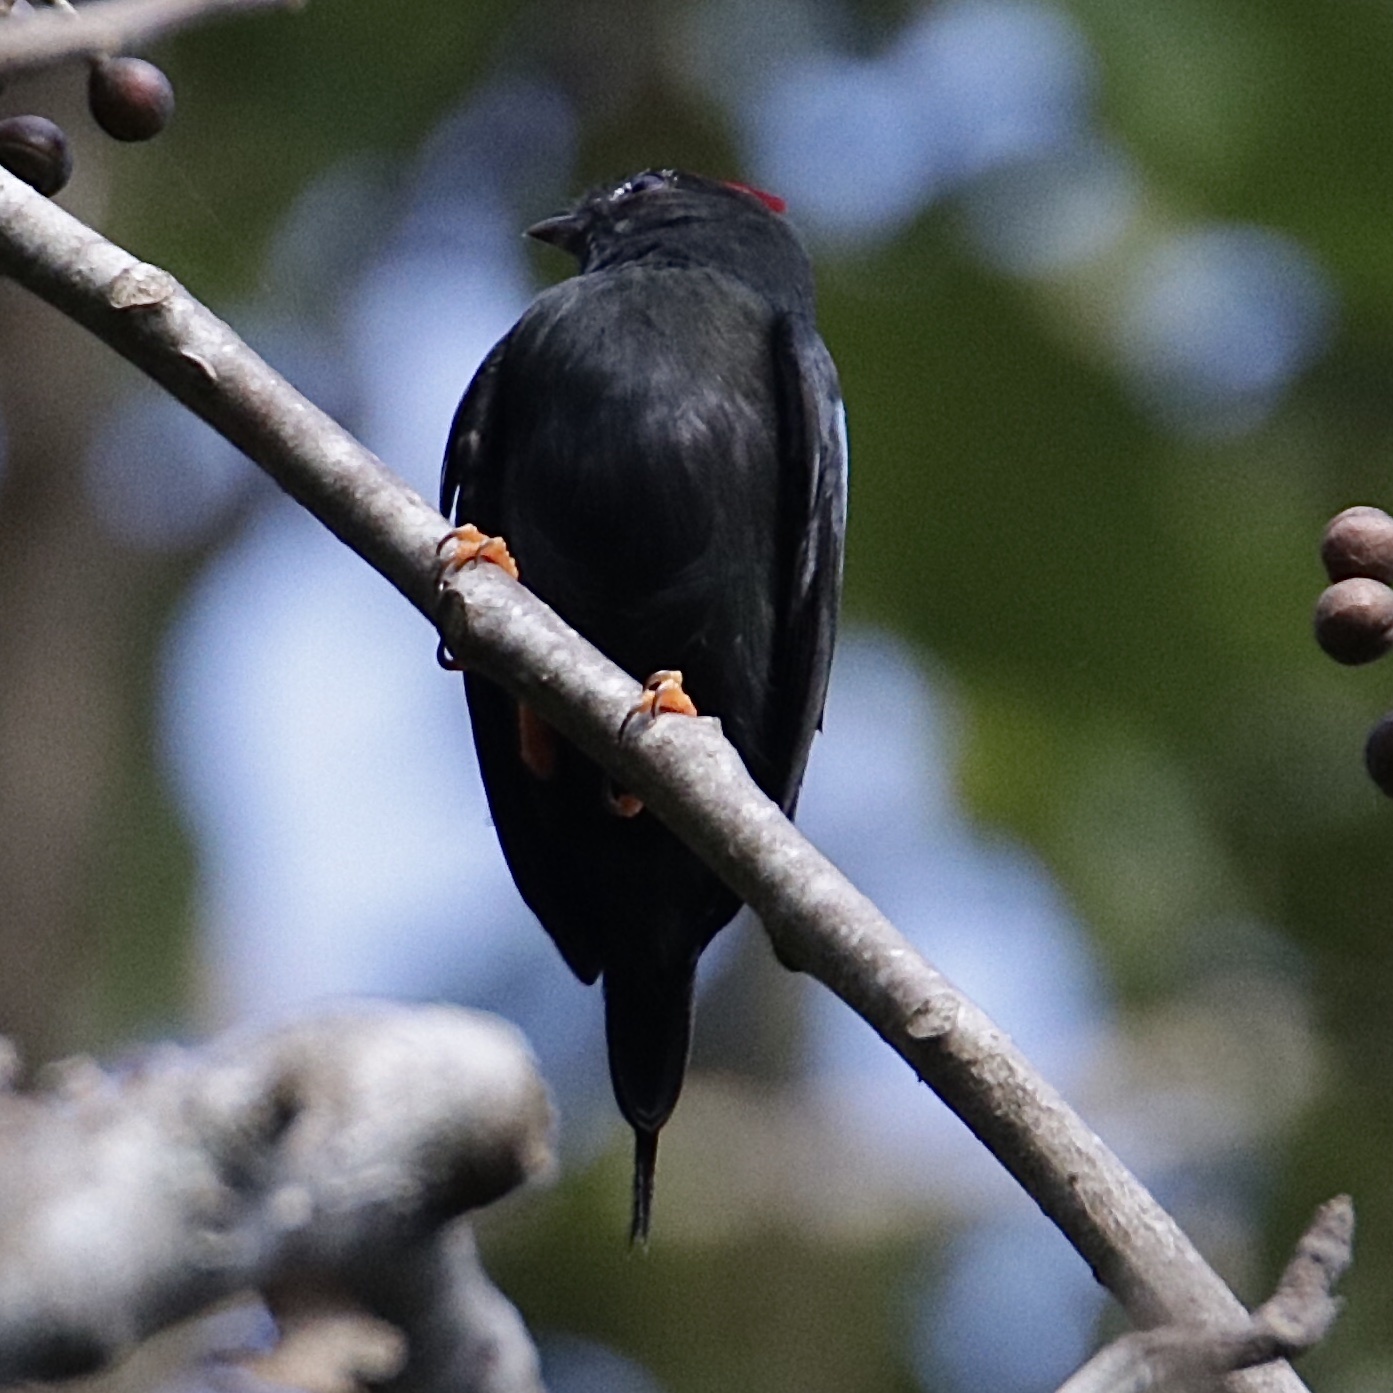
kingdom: Animalia
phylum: Chordata
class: Aves
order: Passeriformes
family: Pipridae
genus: Chiroxiphia
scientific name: Chiroxiphia lanceolata
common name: Lance-tailed manakin
